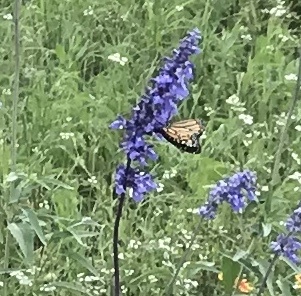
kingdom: Animalia
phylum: Arthropoda
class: Insecta
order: Lepidoptera
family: Nymphalidae
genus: Danaus
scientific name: Danaus plexippus
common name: Monarch
